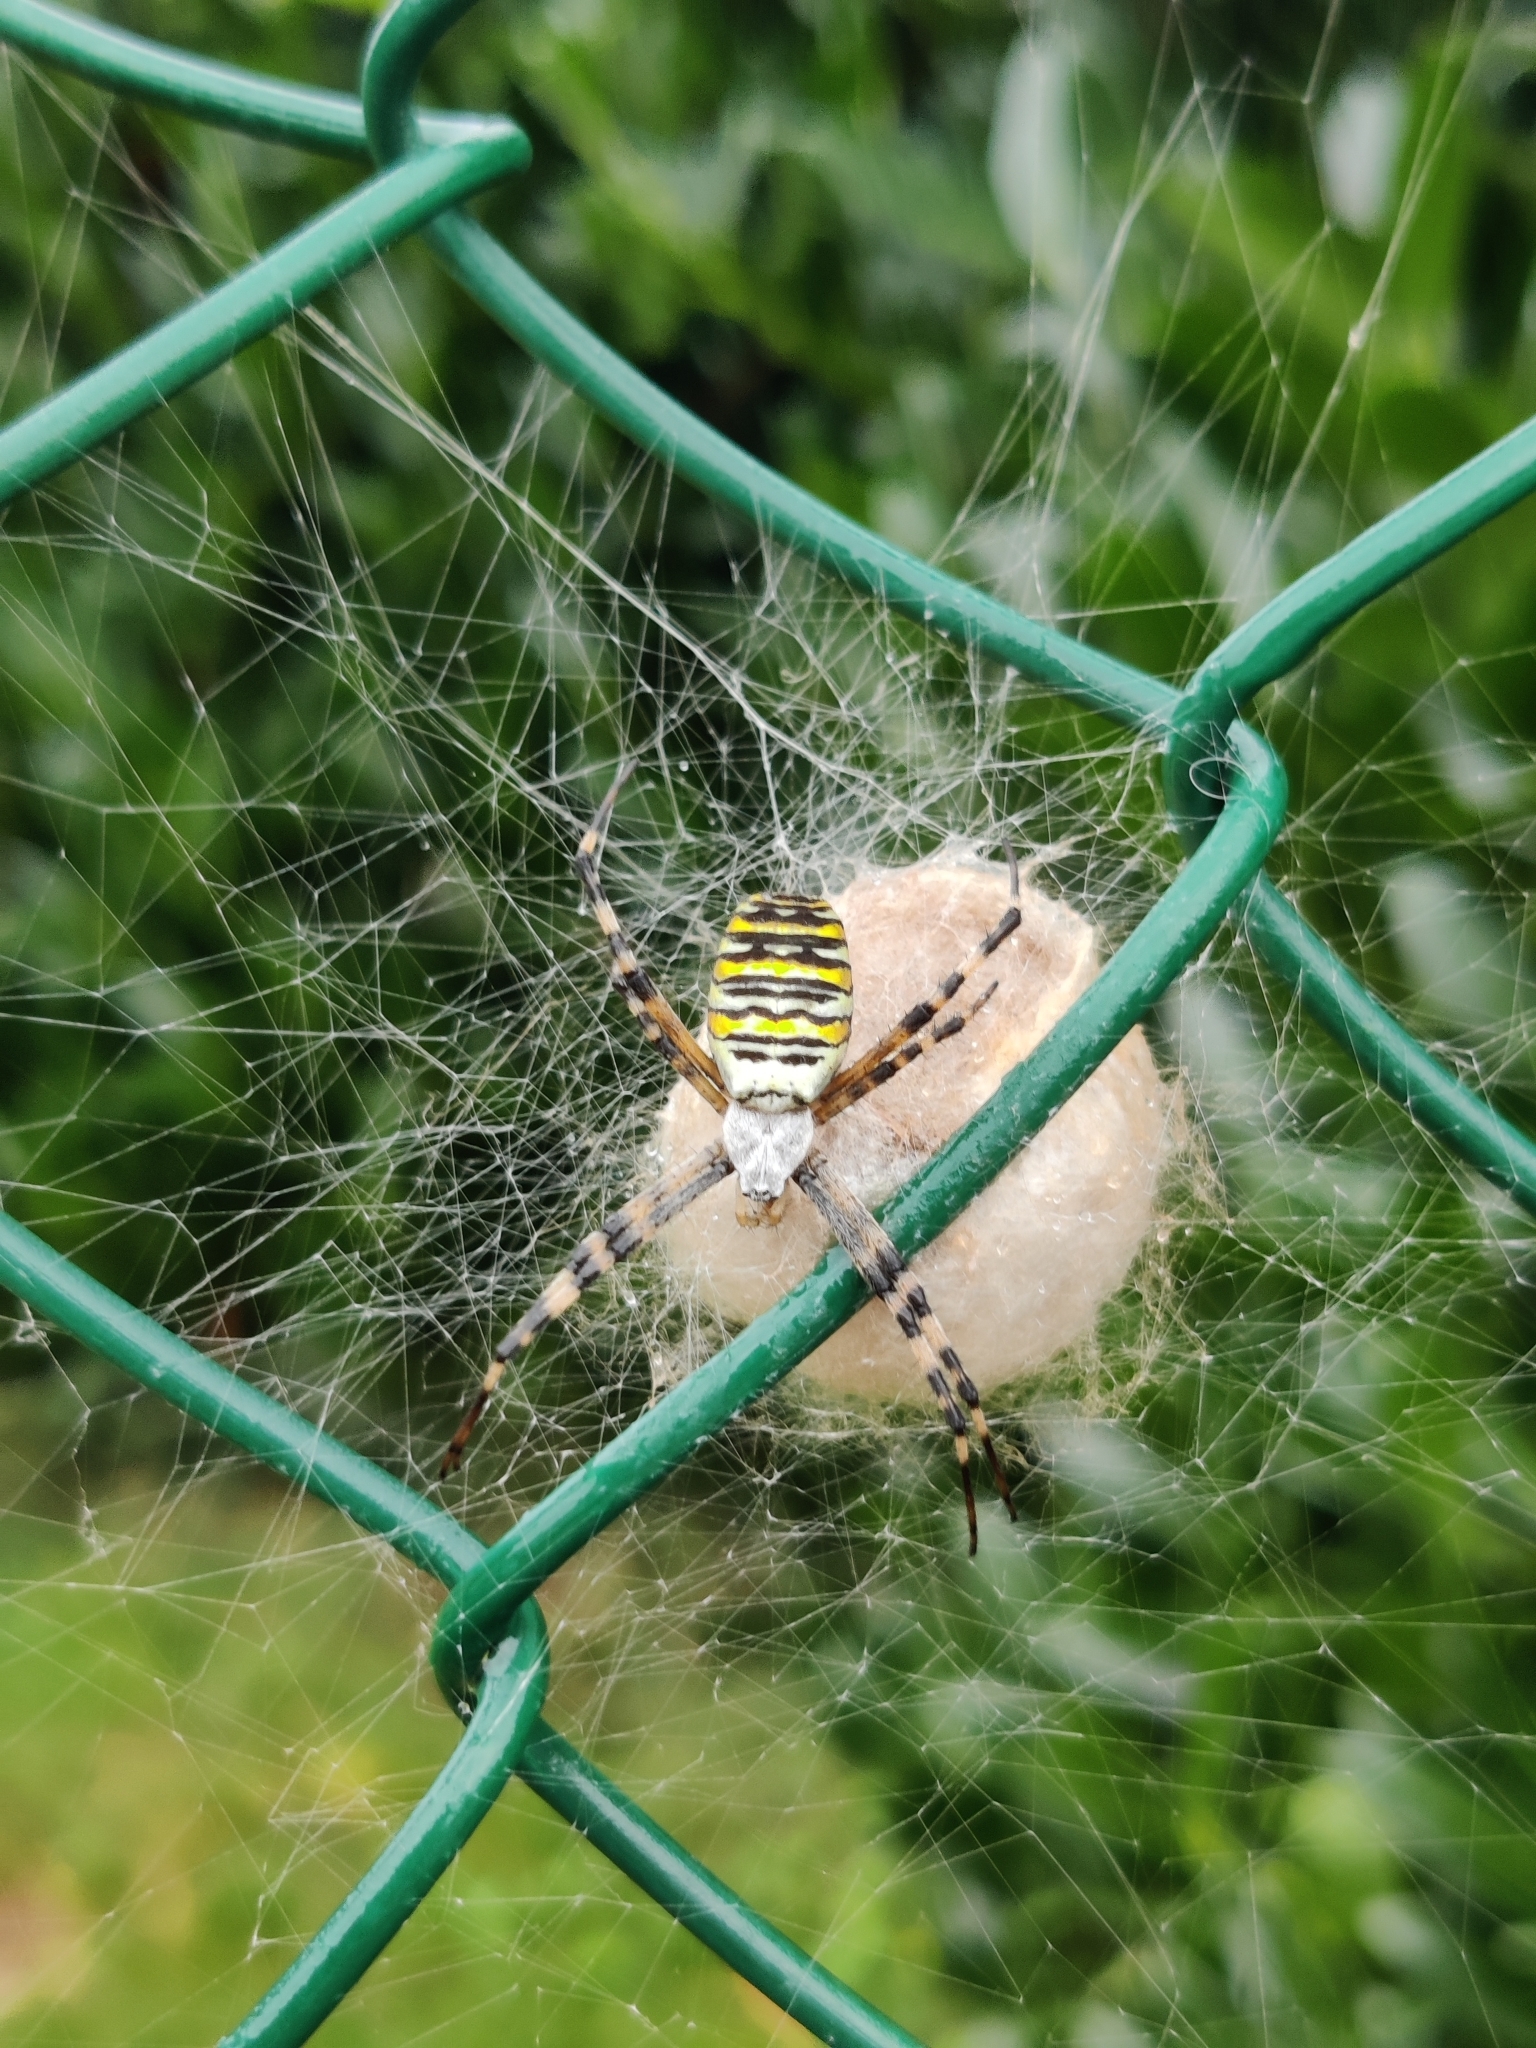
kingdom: Animalia
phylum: Arthropoda
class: Arachnida
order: Araneae
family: Araneidae
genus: Argiope
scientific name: Argiope bruennichi
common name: Wasp spider
